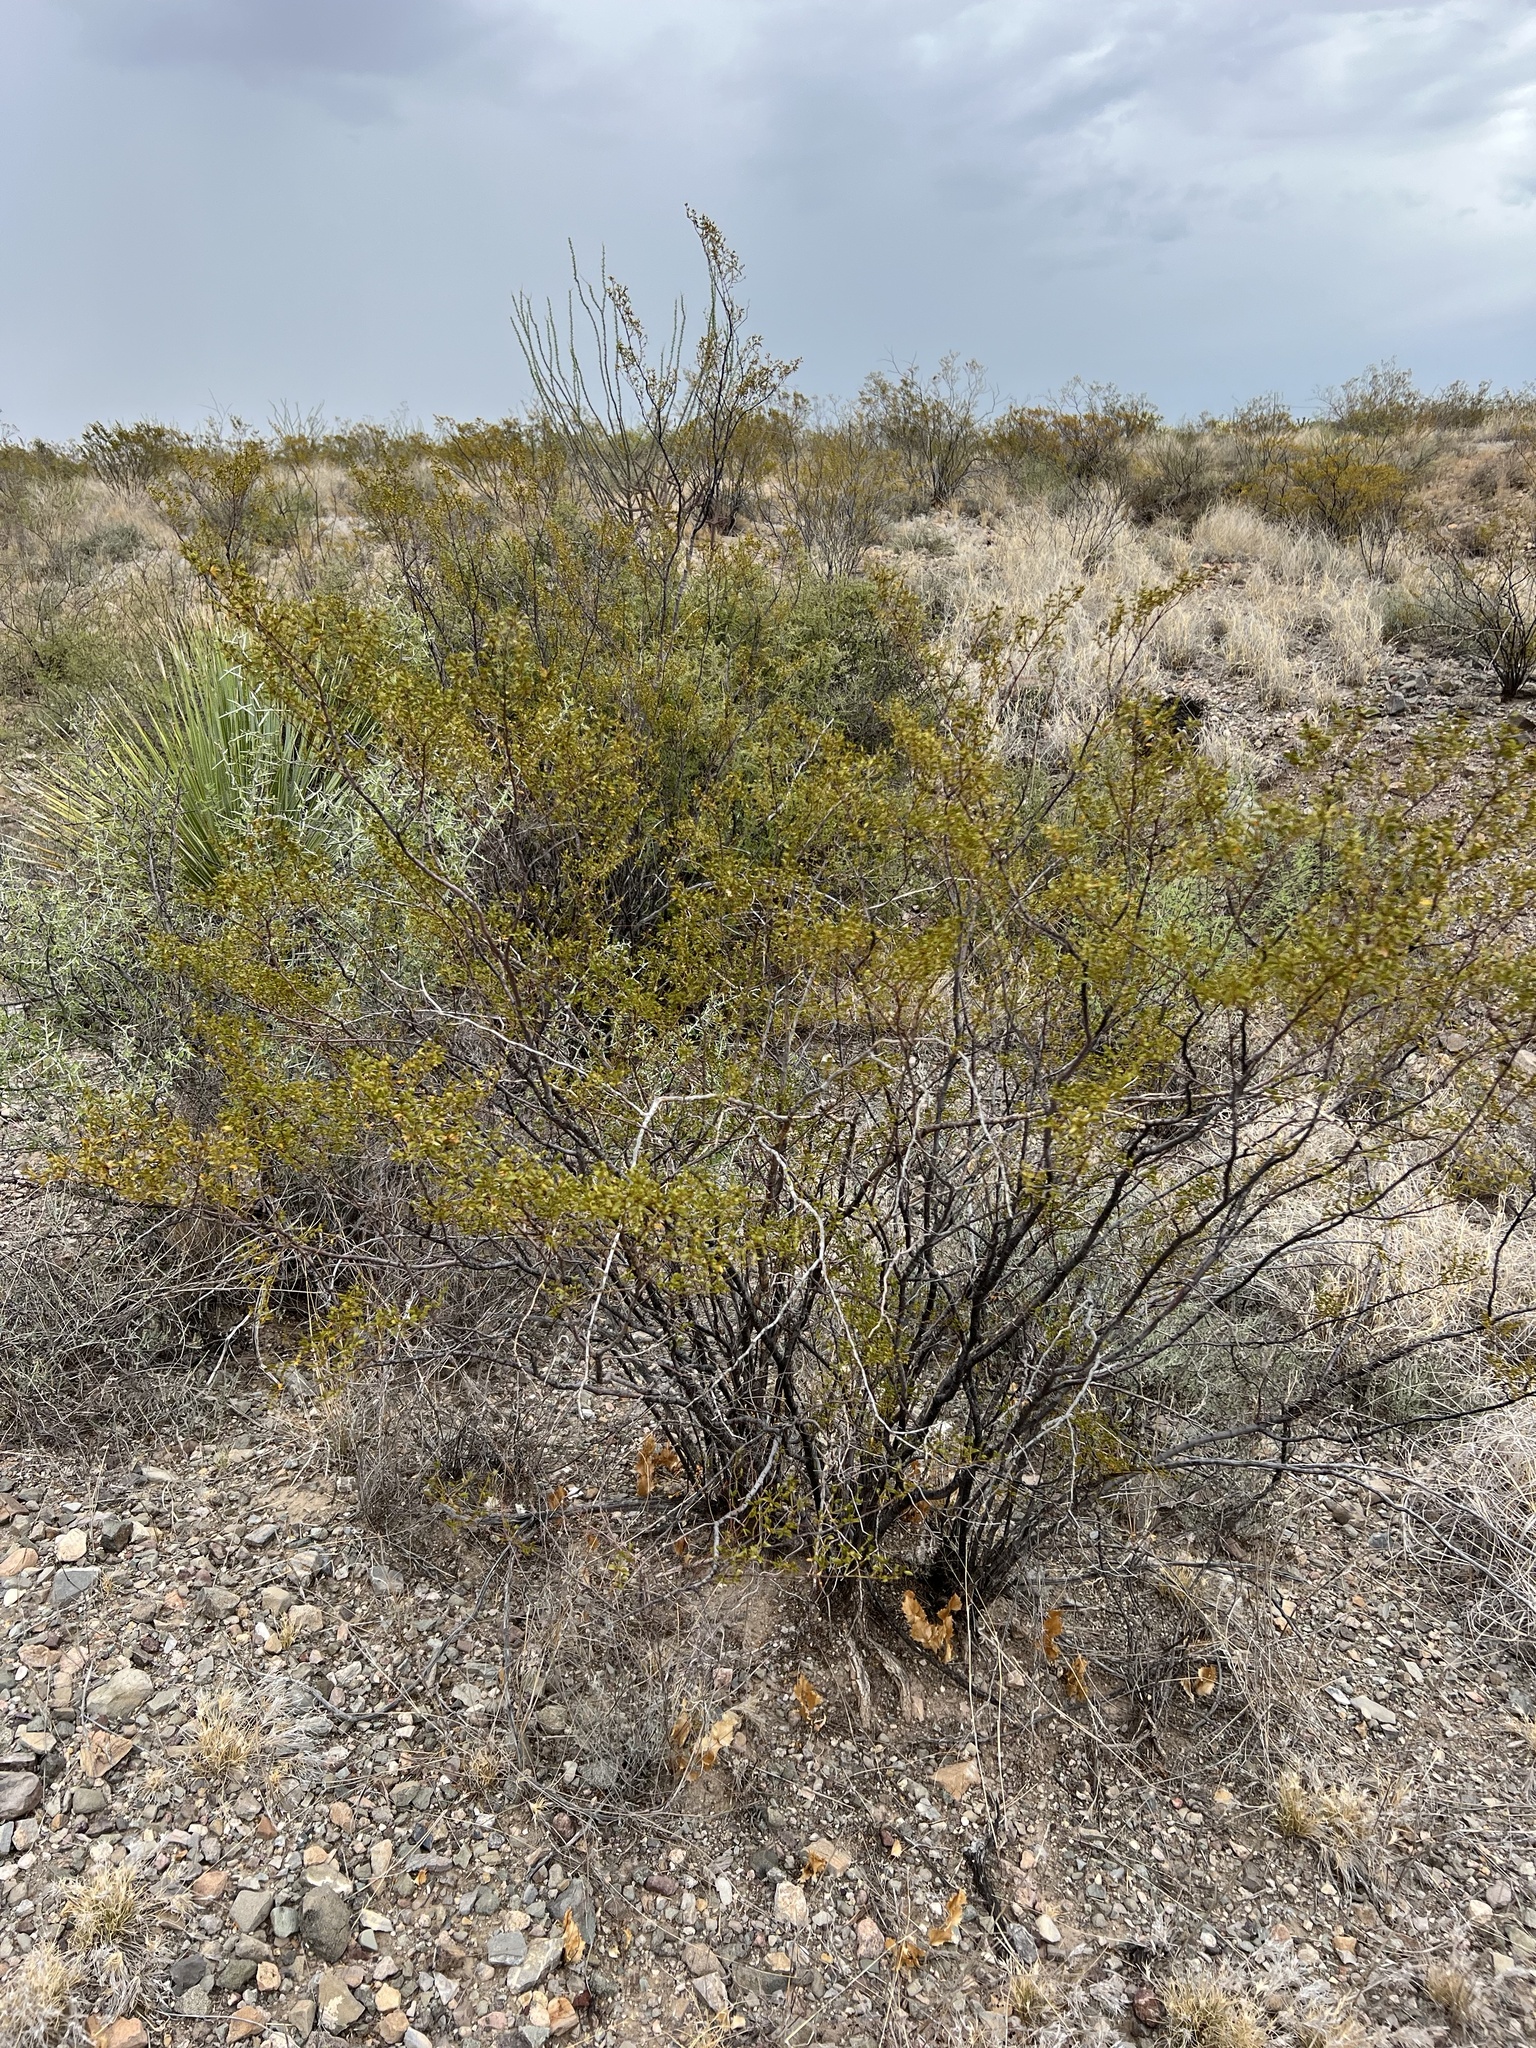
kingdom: Plantae
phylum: Tracheophyta
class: Magnoliopsida
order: Zygophyllales
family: Zygophyllaceae
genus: Larrea
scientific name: Larrea tridentata
